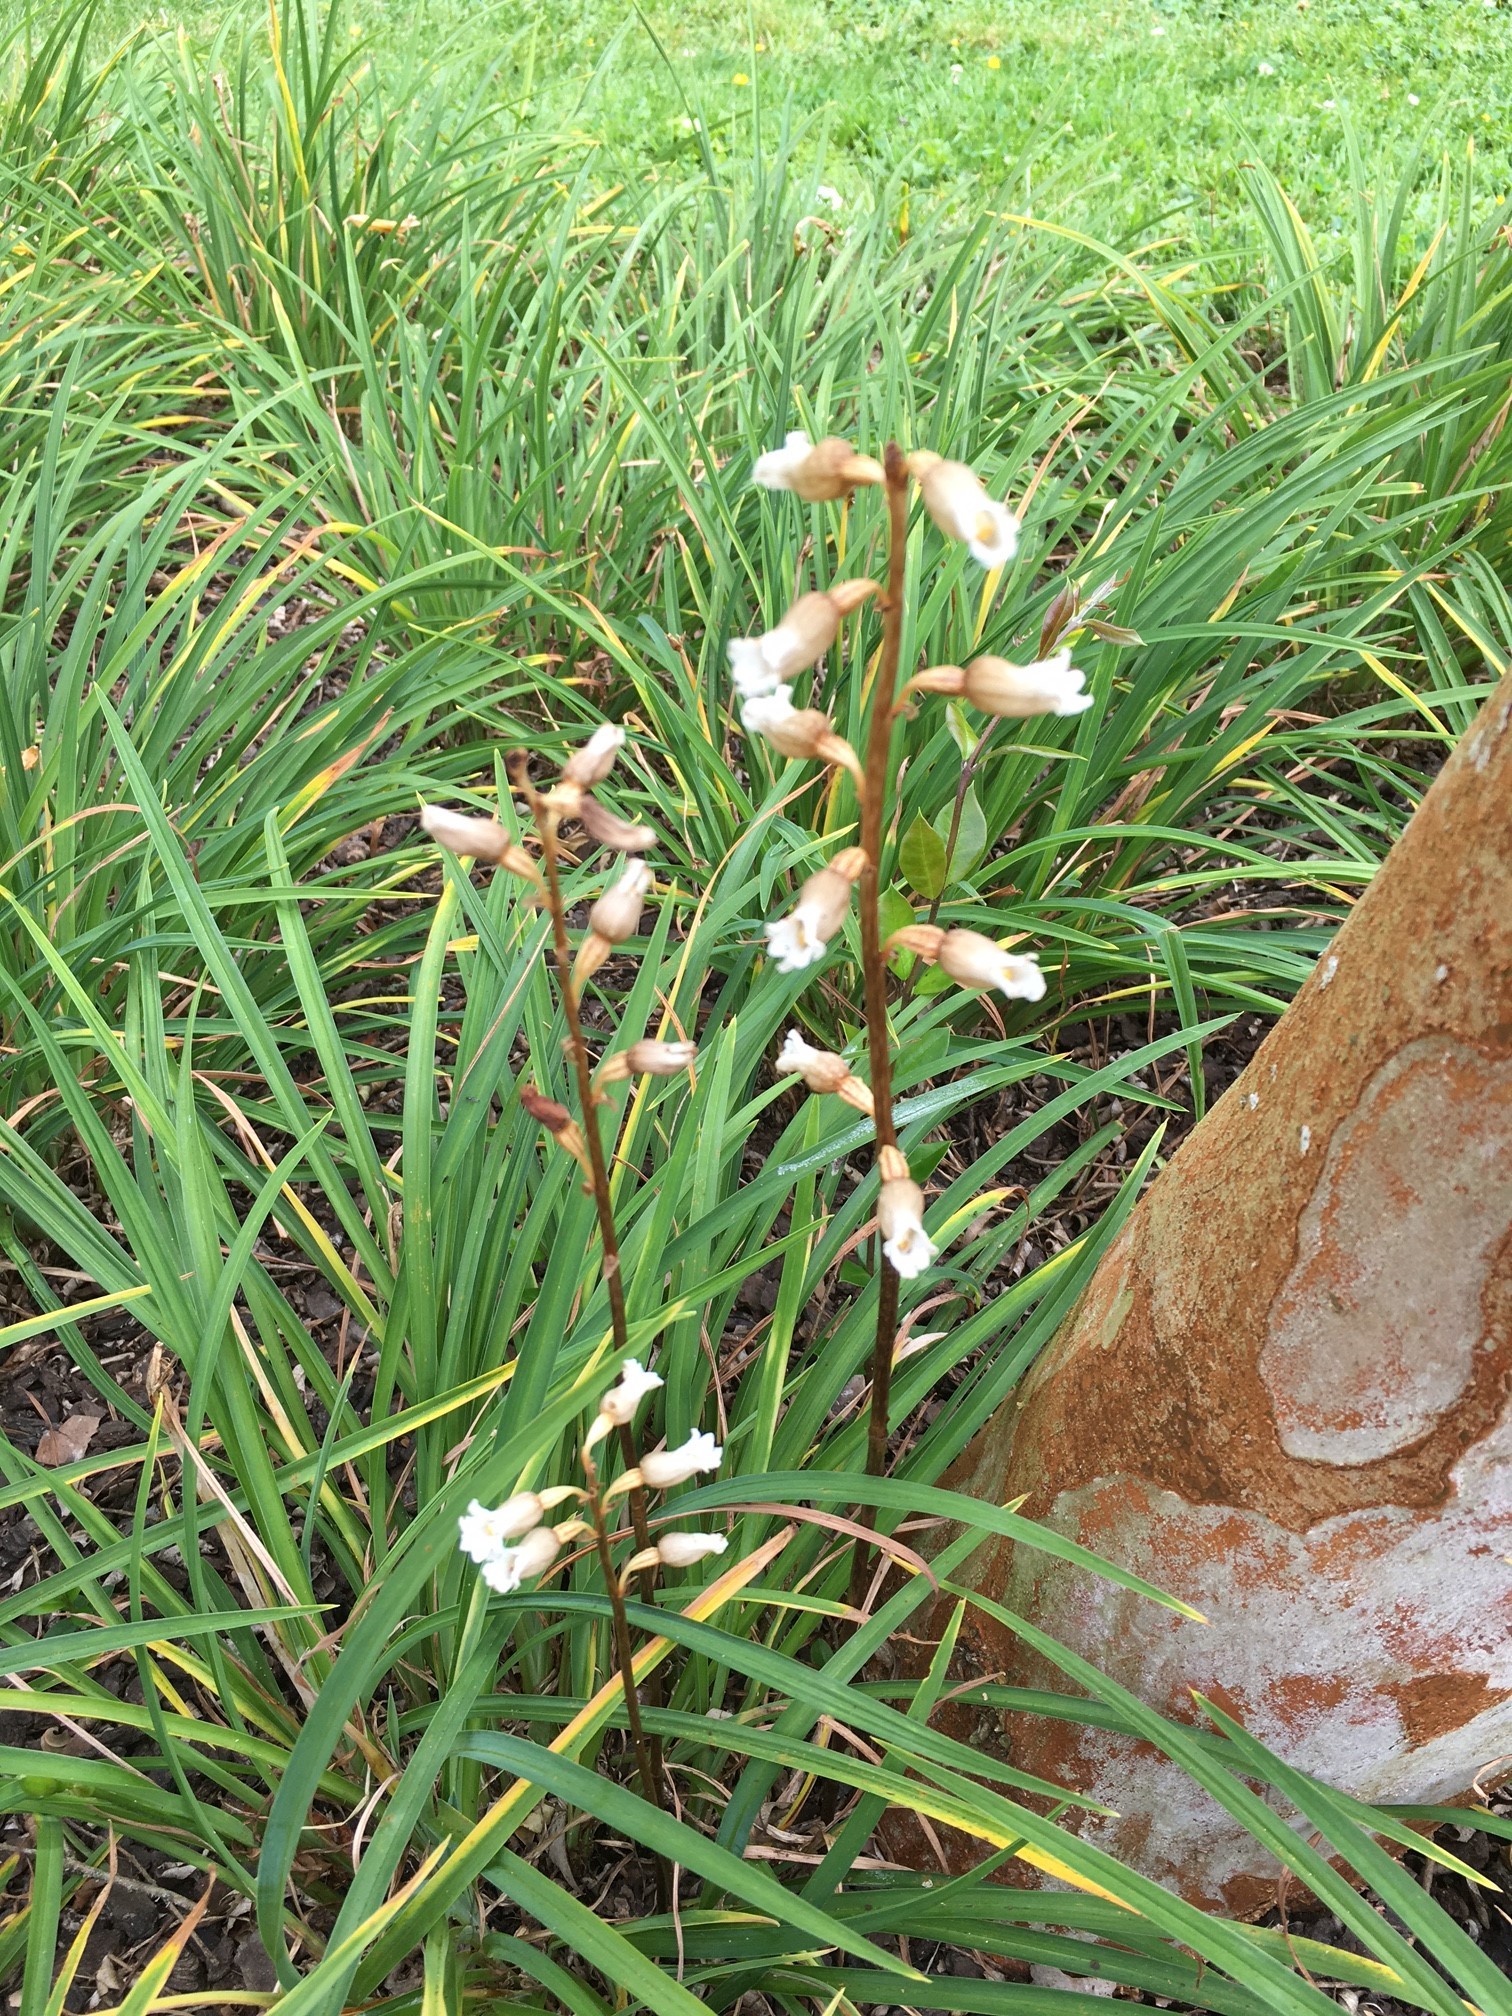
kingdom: Plantae
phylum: Tracheophyta
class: Liliopsida
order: Asparagales
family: Orchidaceae
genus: Gastrodia
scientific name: Gastrodia sesamoides
